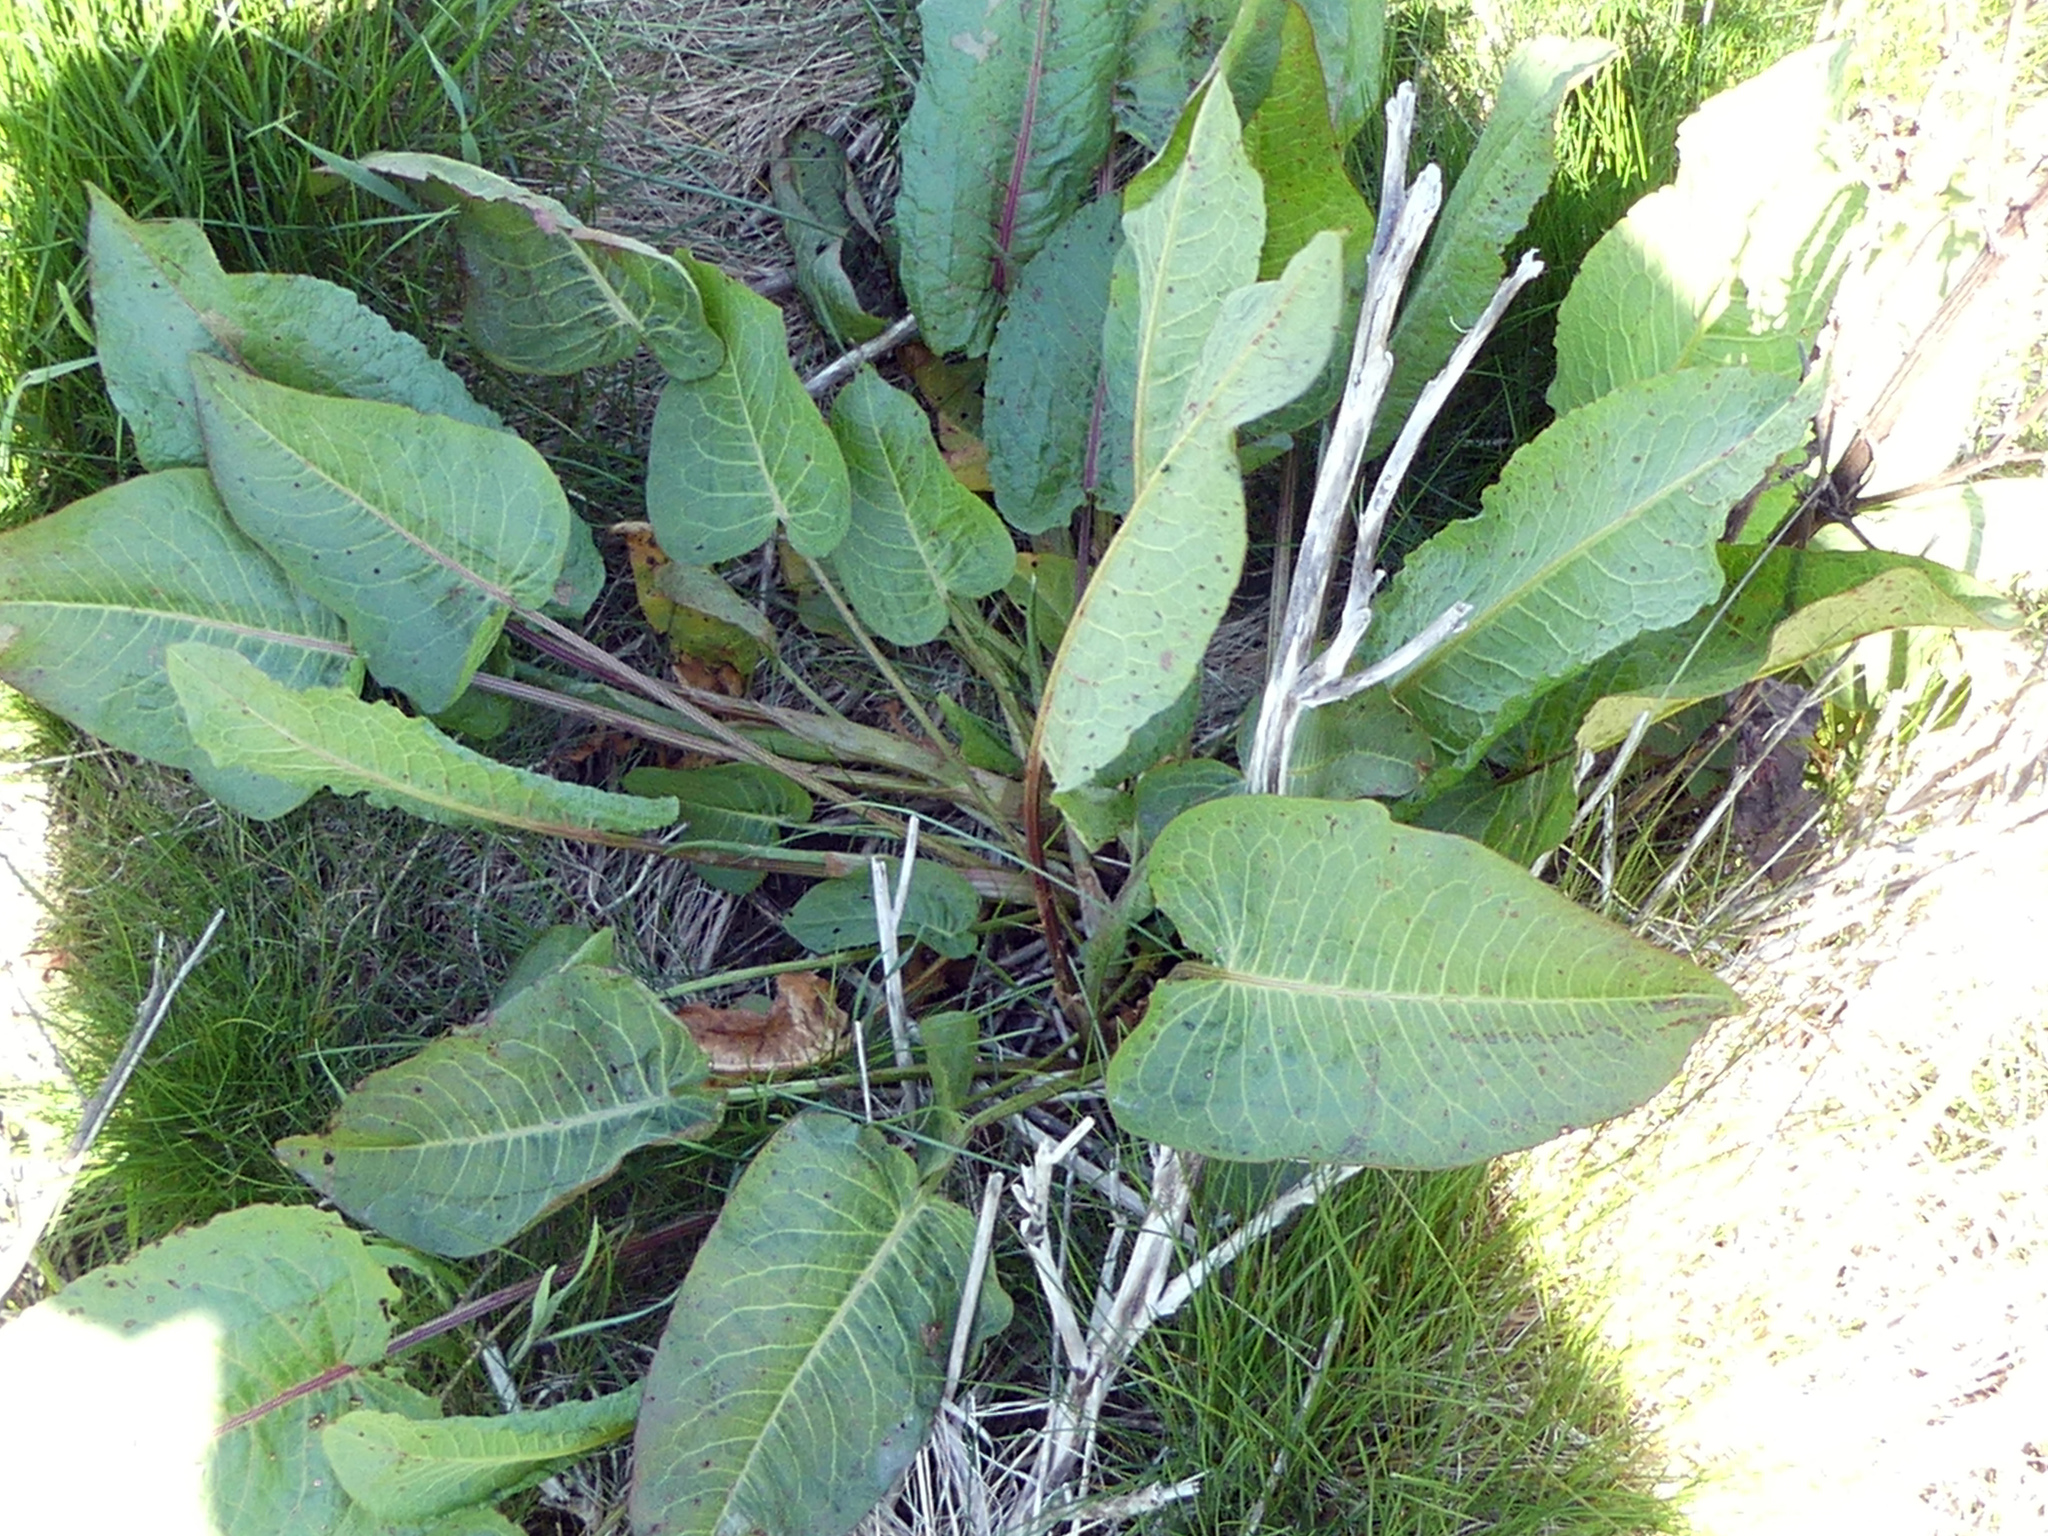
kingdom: Plantae
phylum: Tracheophyta
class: Magnoliopsida
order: Caryophyllales
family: Polygonaceae
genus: Rumex
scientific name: Rumex obtusifolius
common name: Bitter dock
